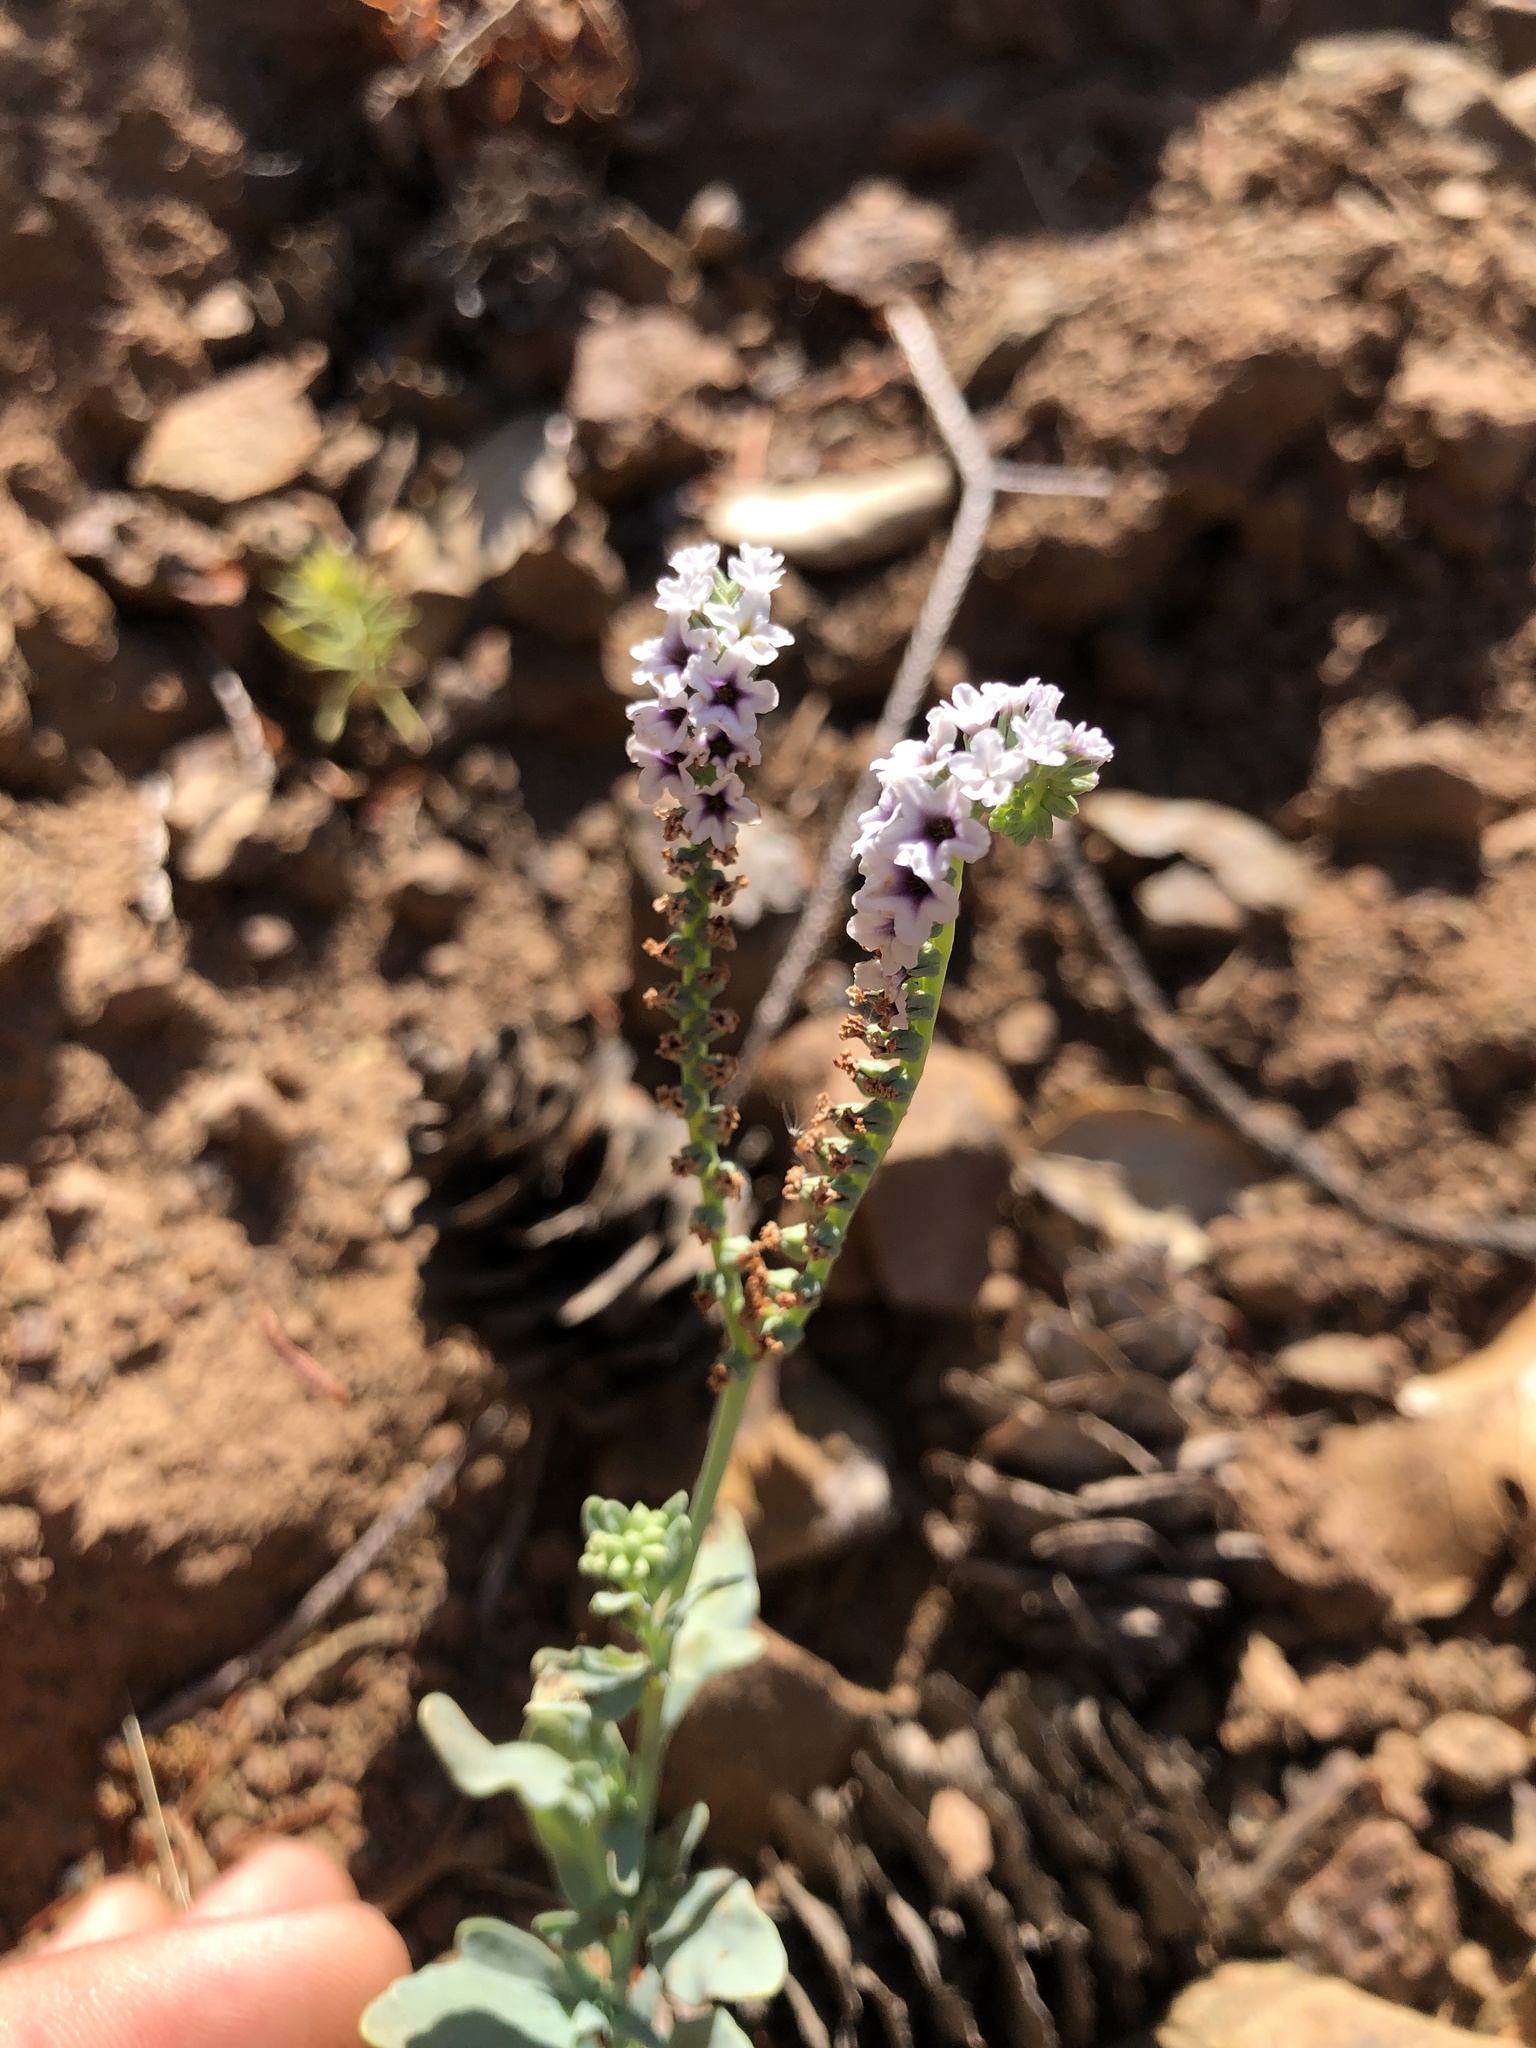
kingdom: Plantae
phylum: Tracheophyta
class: Magnoliopsida
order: Boraginales
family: Heliotropiaceae
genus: Heliotropium
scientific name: Heliotropium curassavicum
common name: Seaside heliotrope
